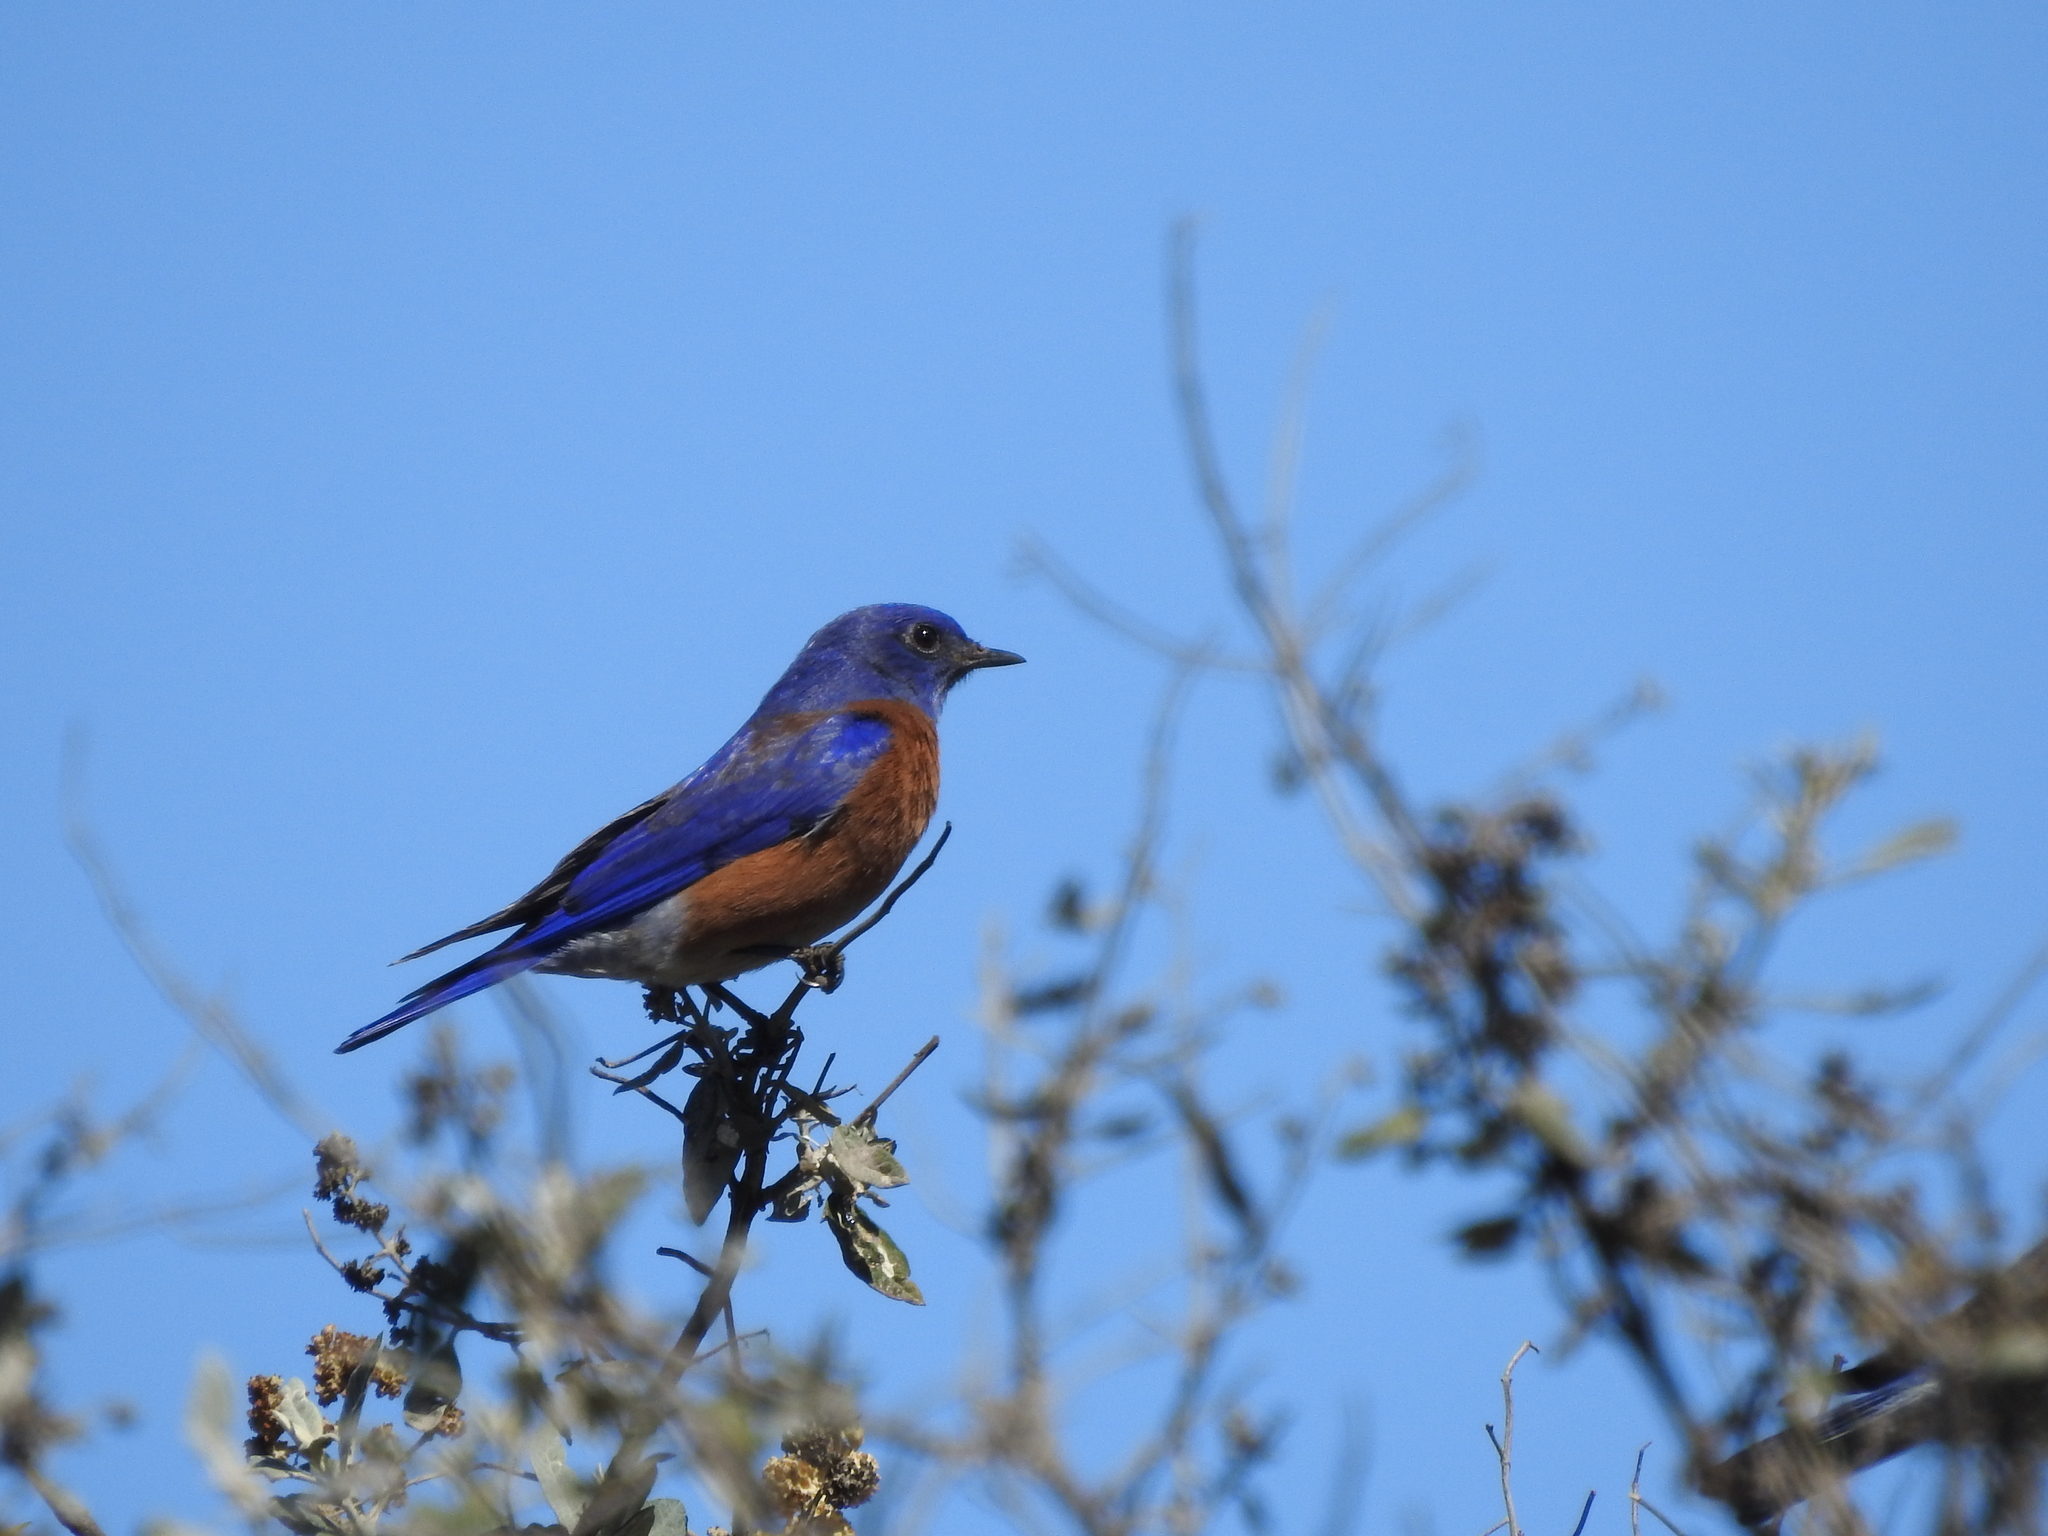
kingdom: Animalia
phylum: Chordata
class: Aves
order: Passeriformes
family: Turdidae
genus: Sialia
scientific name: Sialia mexicana
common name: Western bluebird
